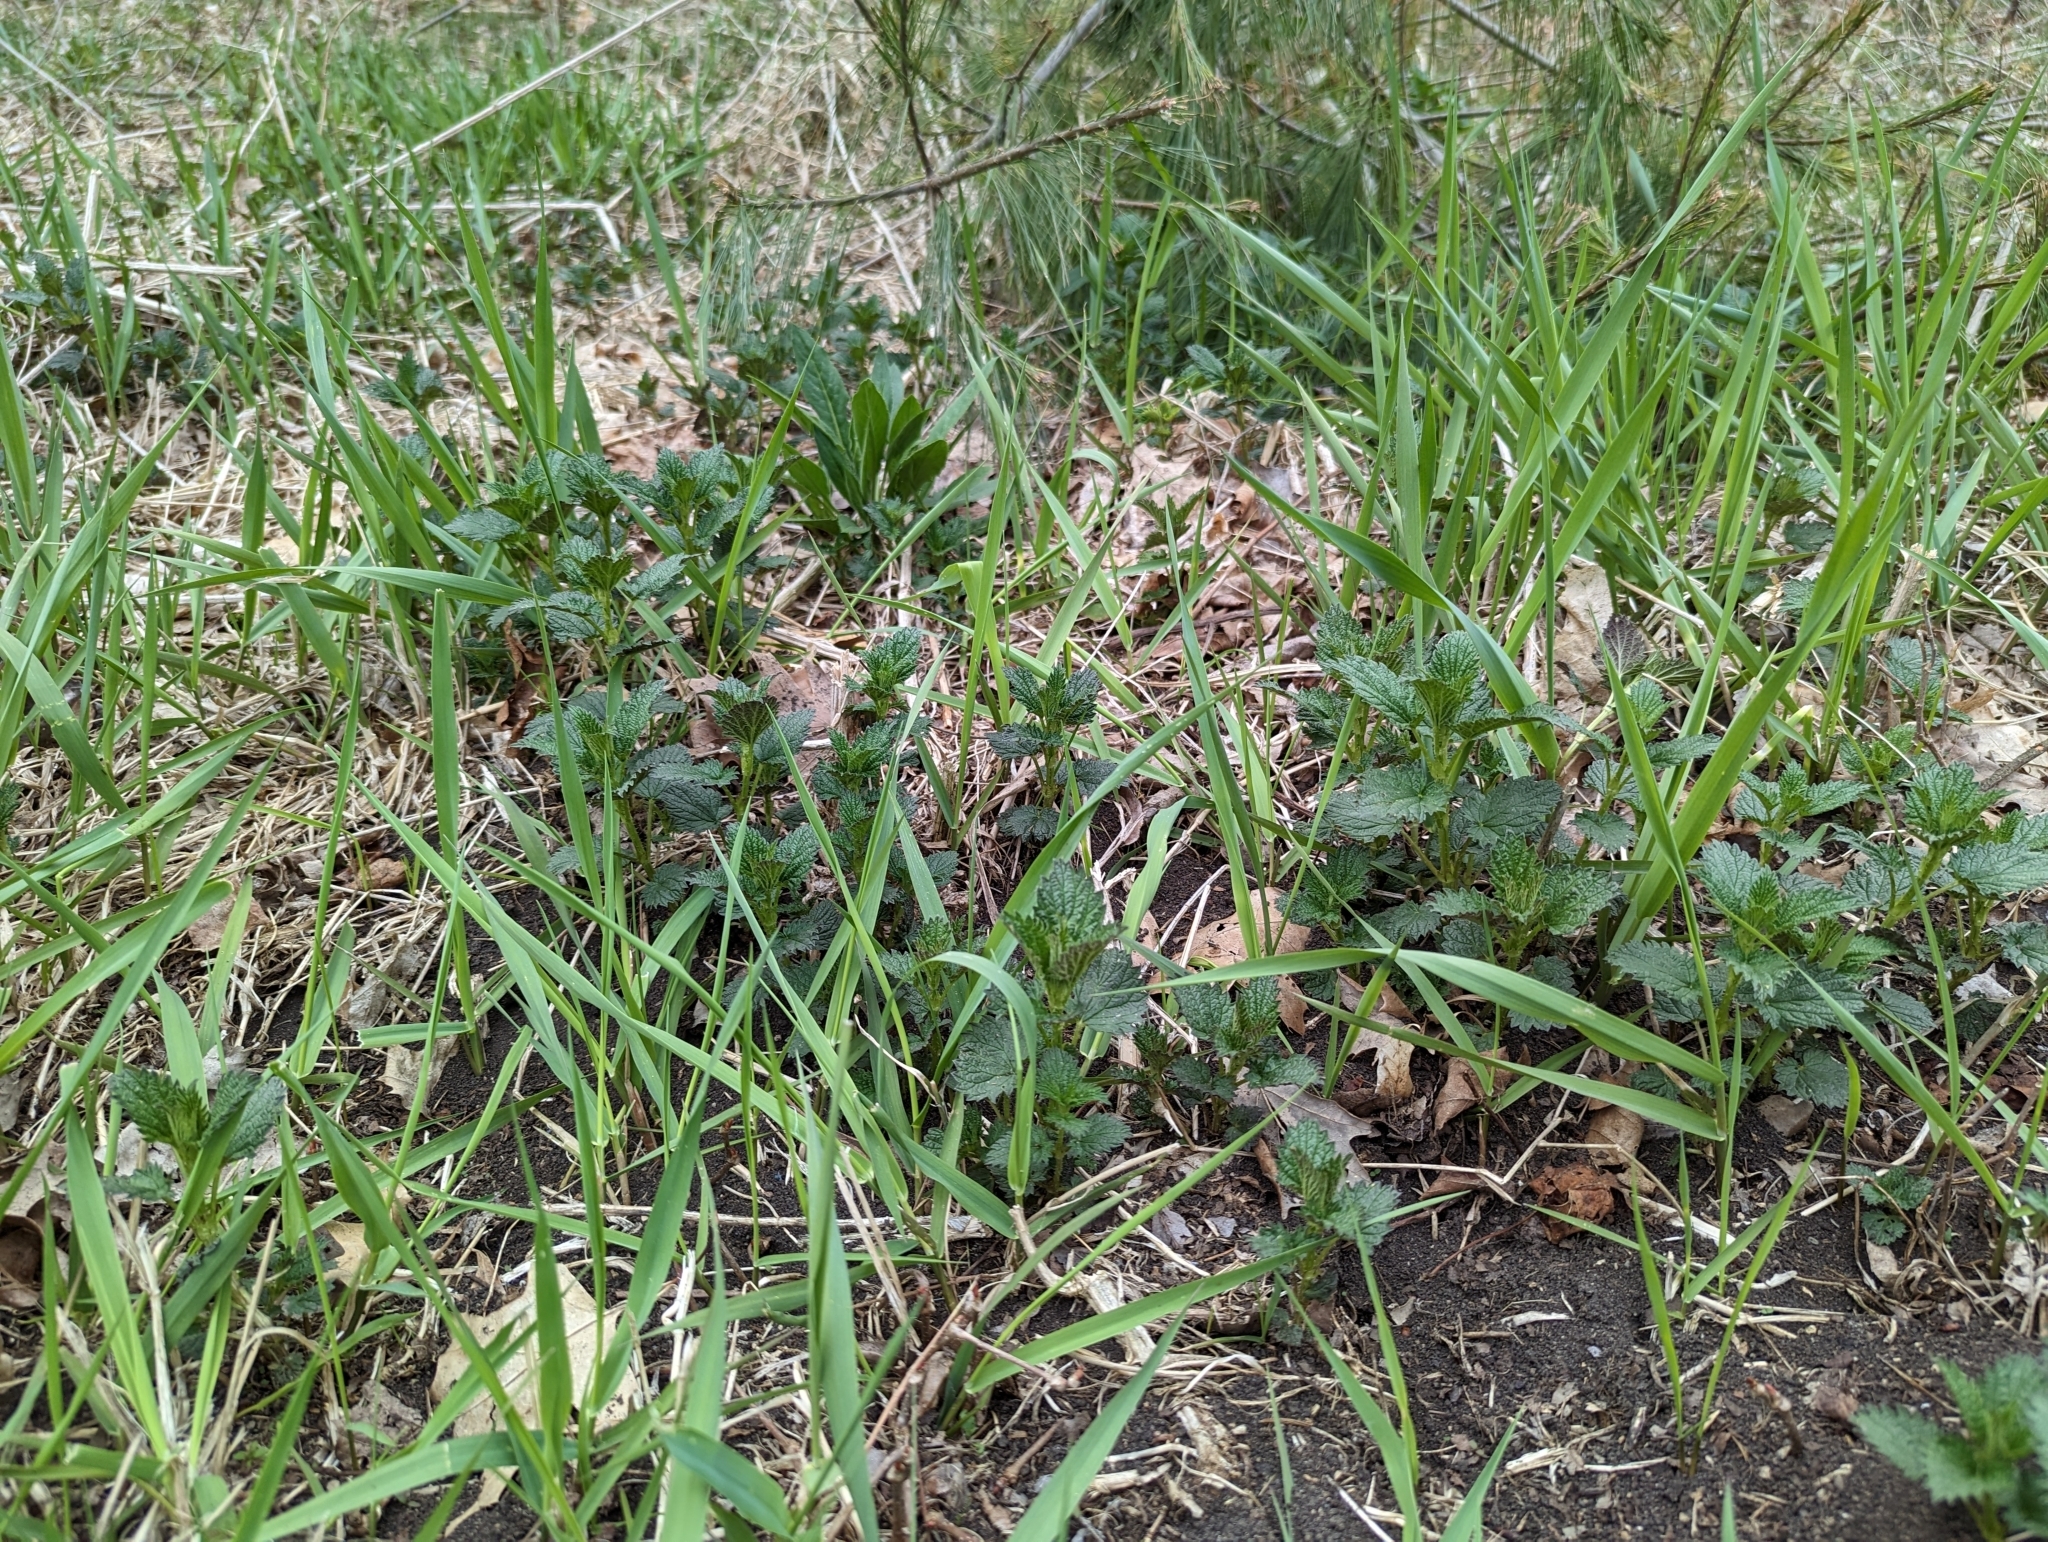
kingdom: Plantae
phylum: Tracheophyta
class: Magnoliopsida
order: Rosales
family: Urticaceae
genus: Urtica
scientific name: Urtica dioica
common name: Common nettle
